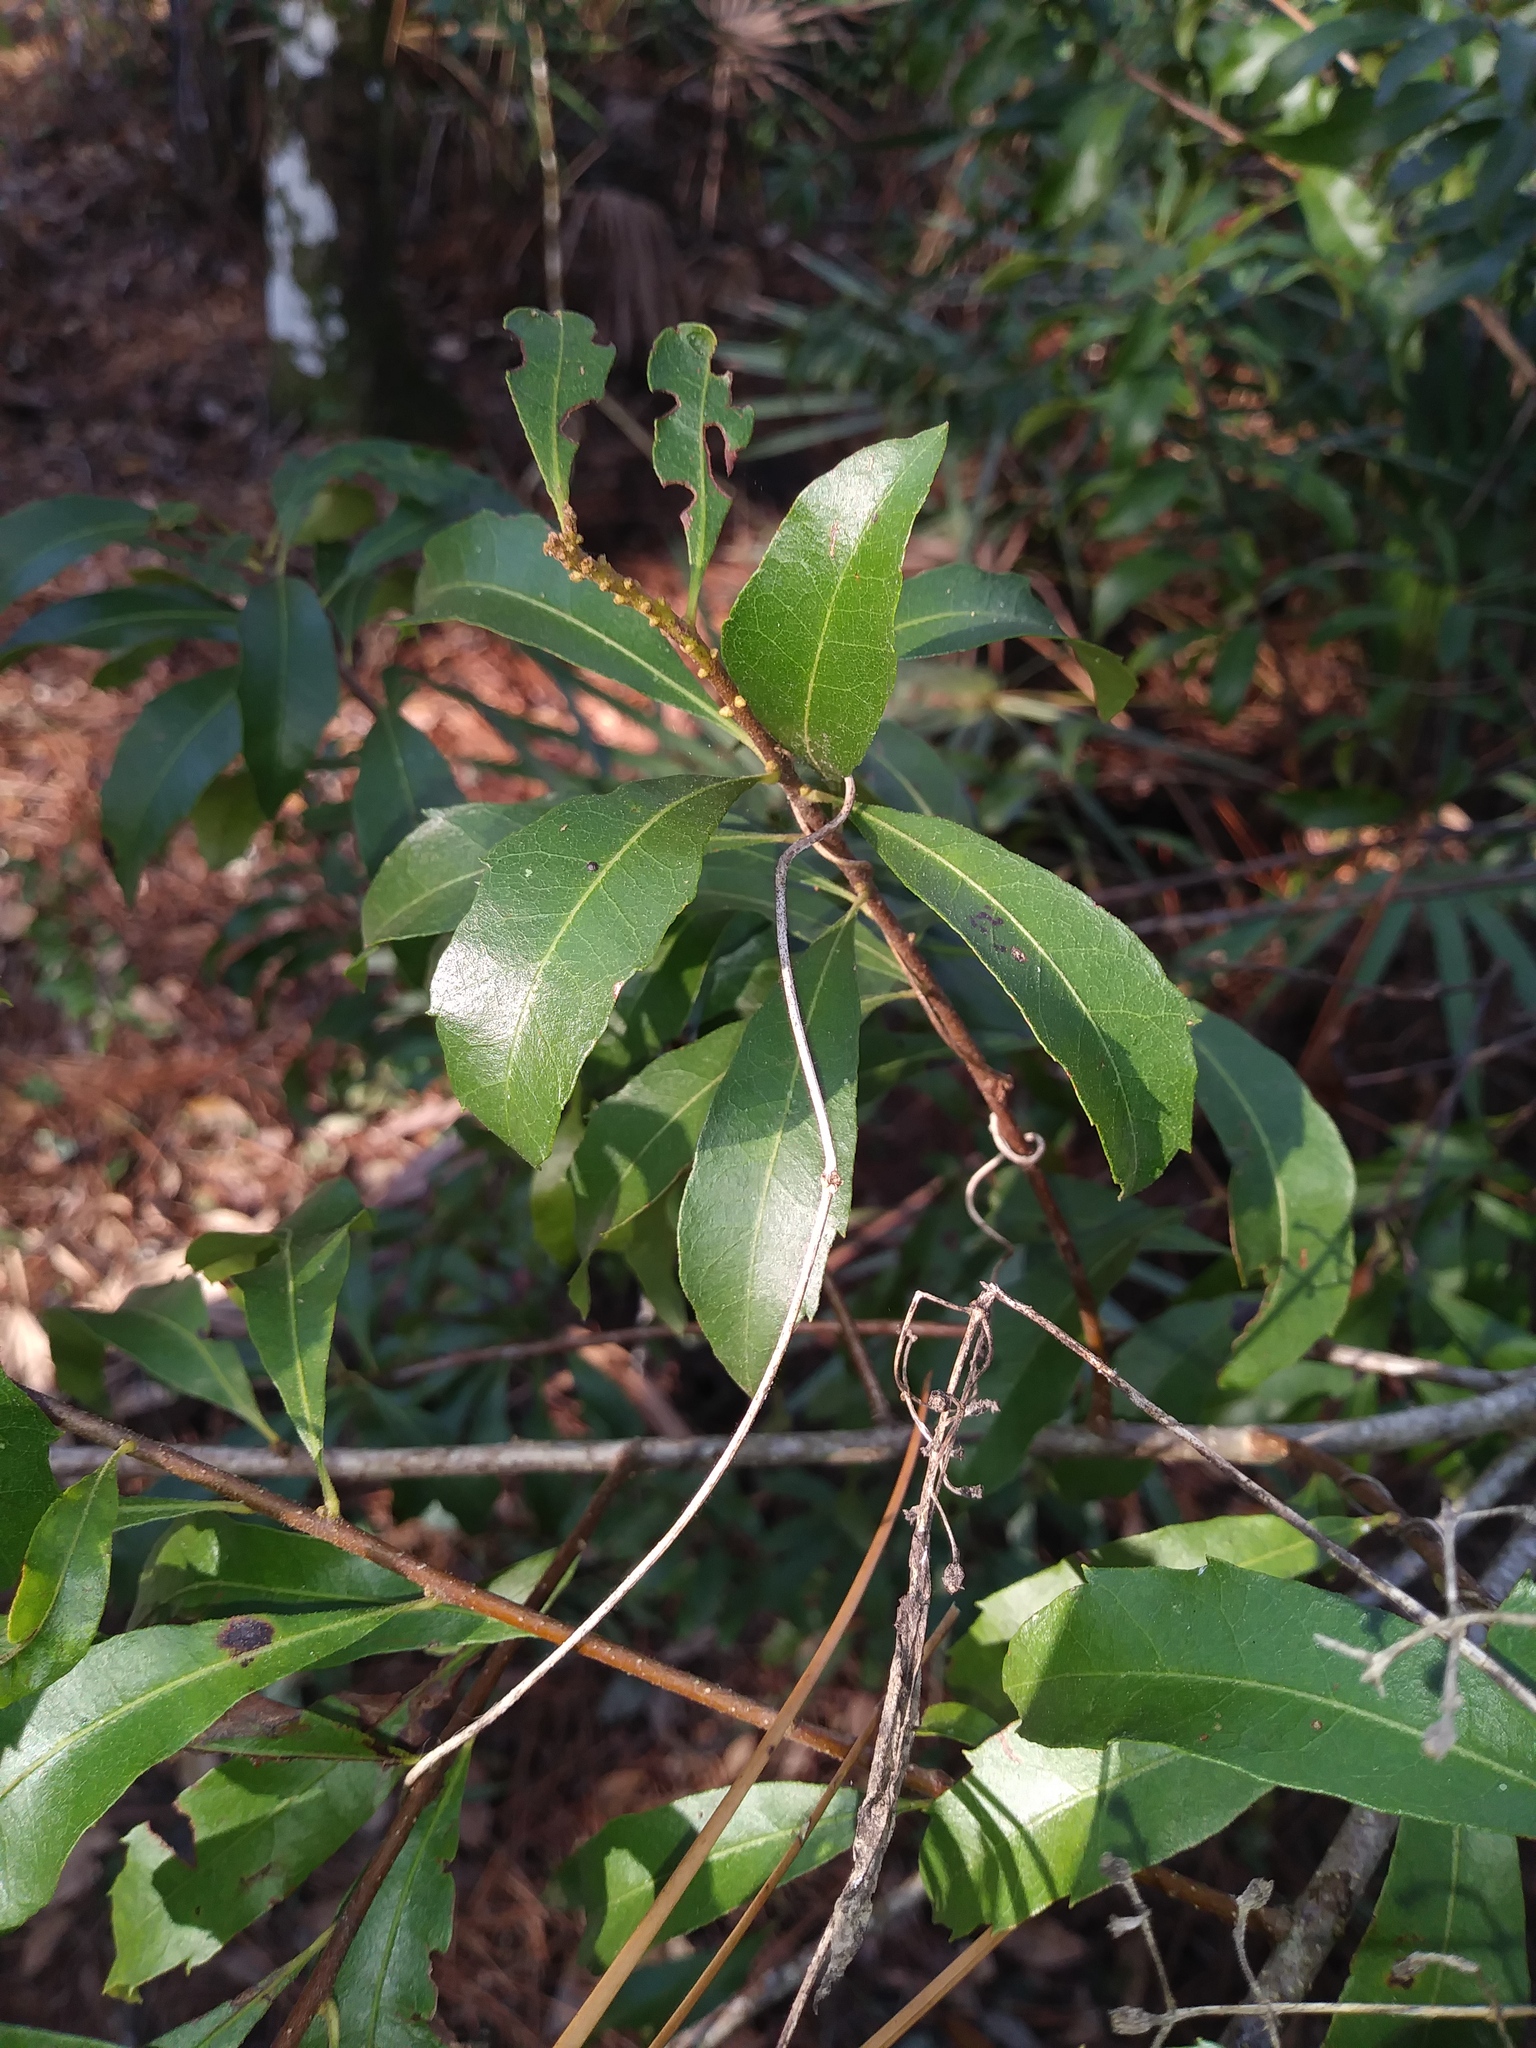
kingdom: Plantae
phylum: Tracheophyta
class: Magnoliopsida
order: Fagales
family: Myricaceae
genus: Morella
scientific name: Morella cerifera
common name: Wax myrtle
